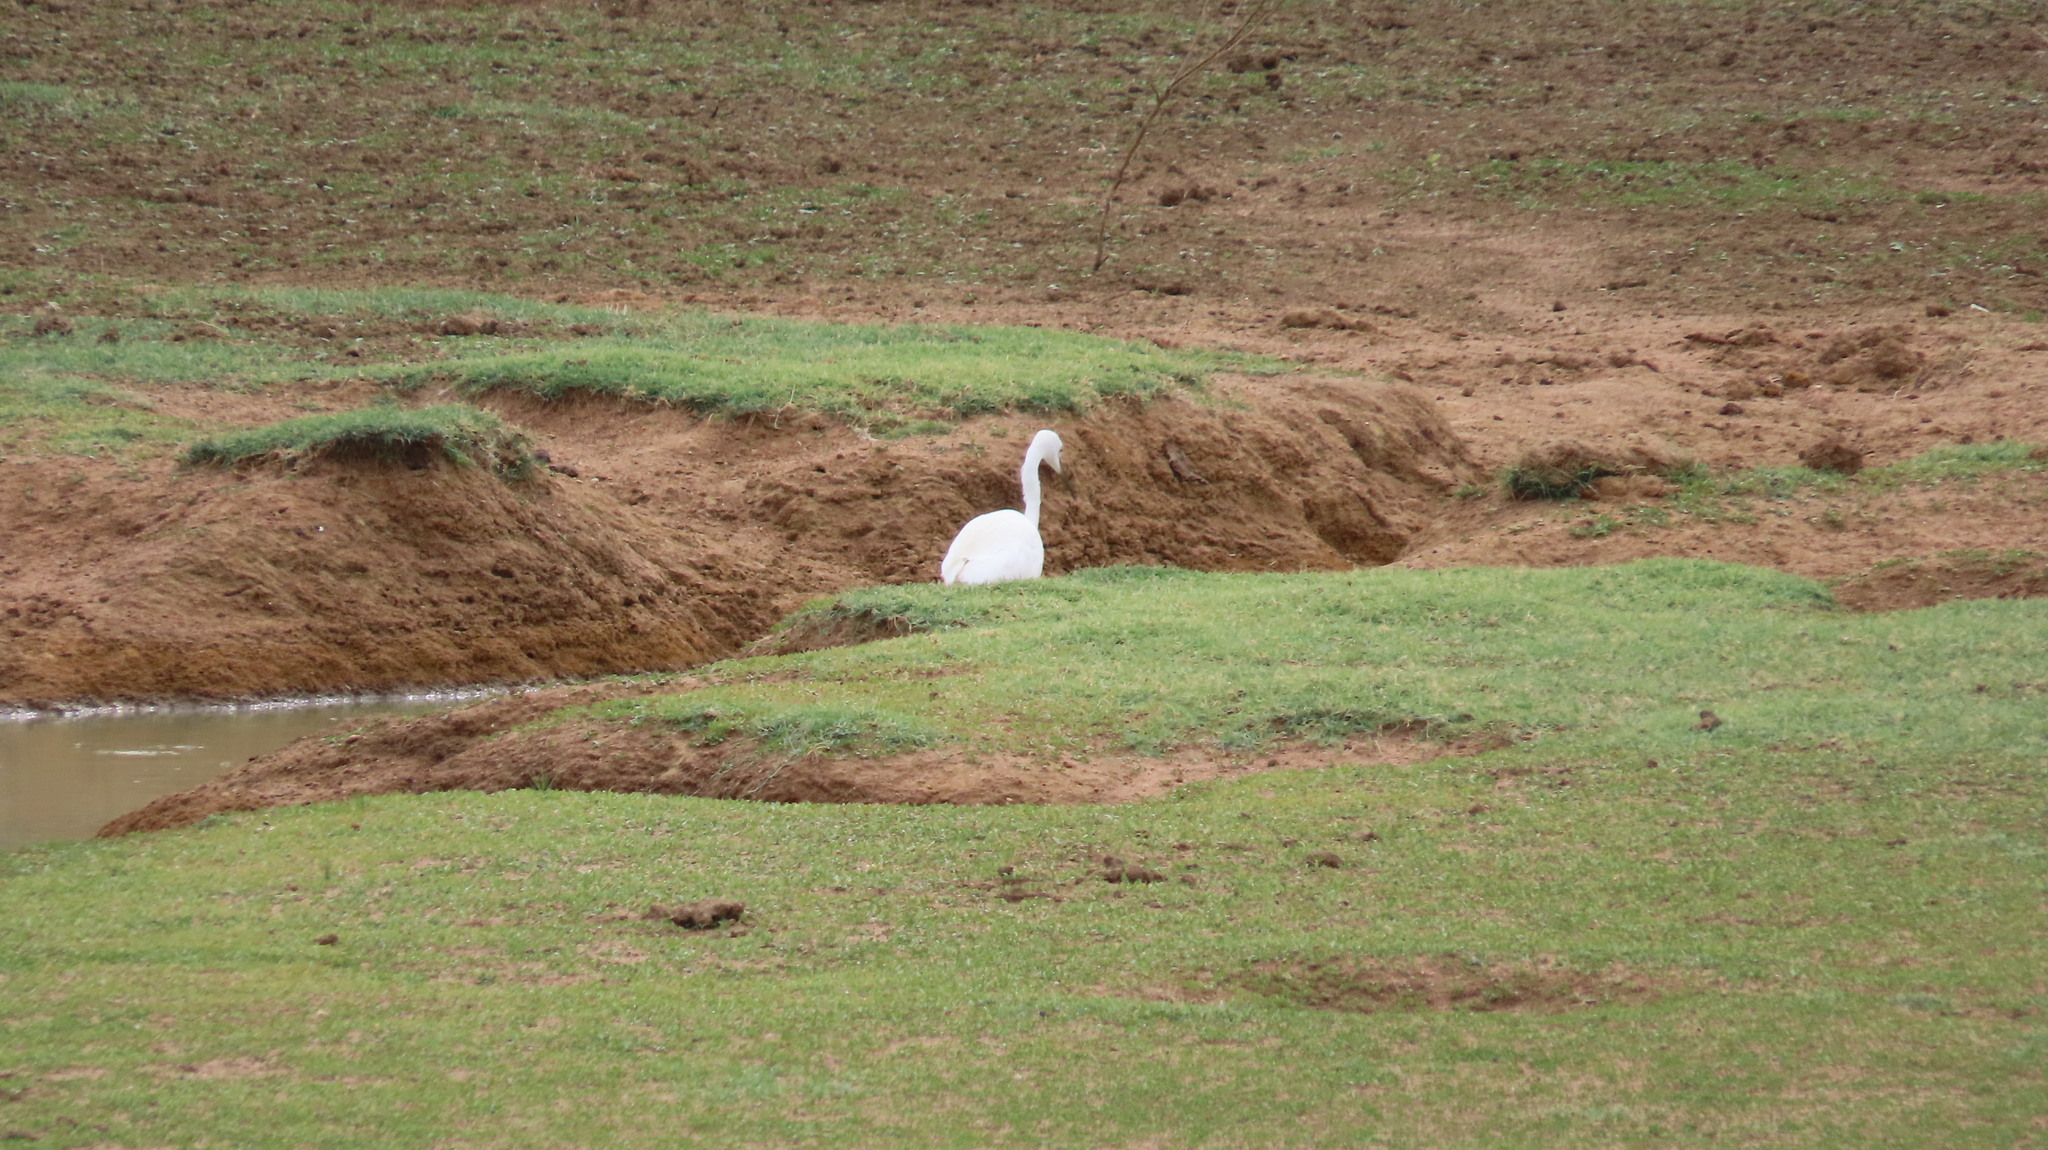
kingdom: Animalia
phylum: Chordata
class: Aves
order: Pelecaniformes
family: Ardeidae
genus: Egretta
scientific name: Egretta garzetta
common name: Little egret
